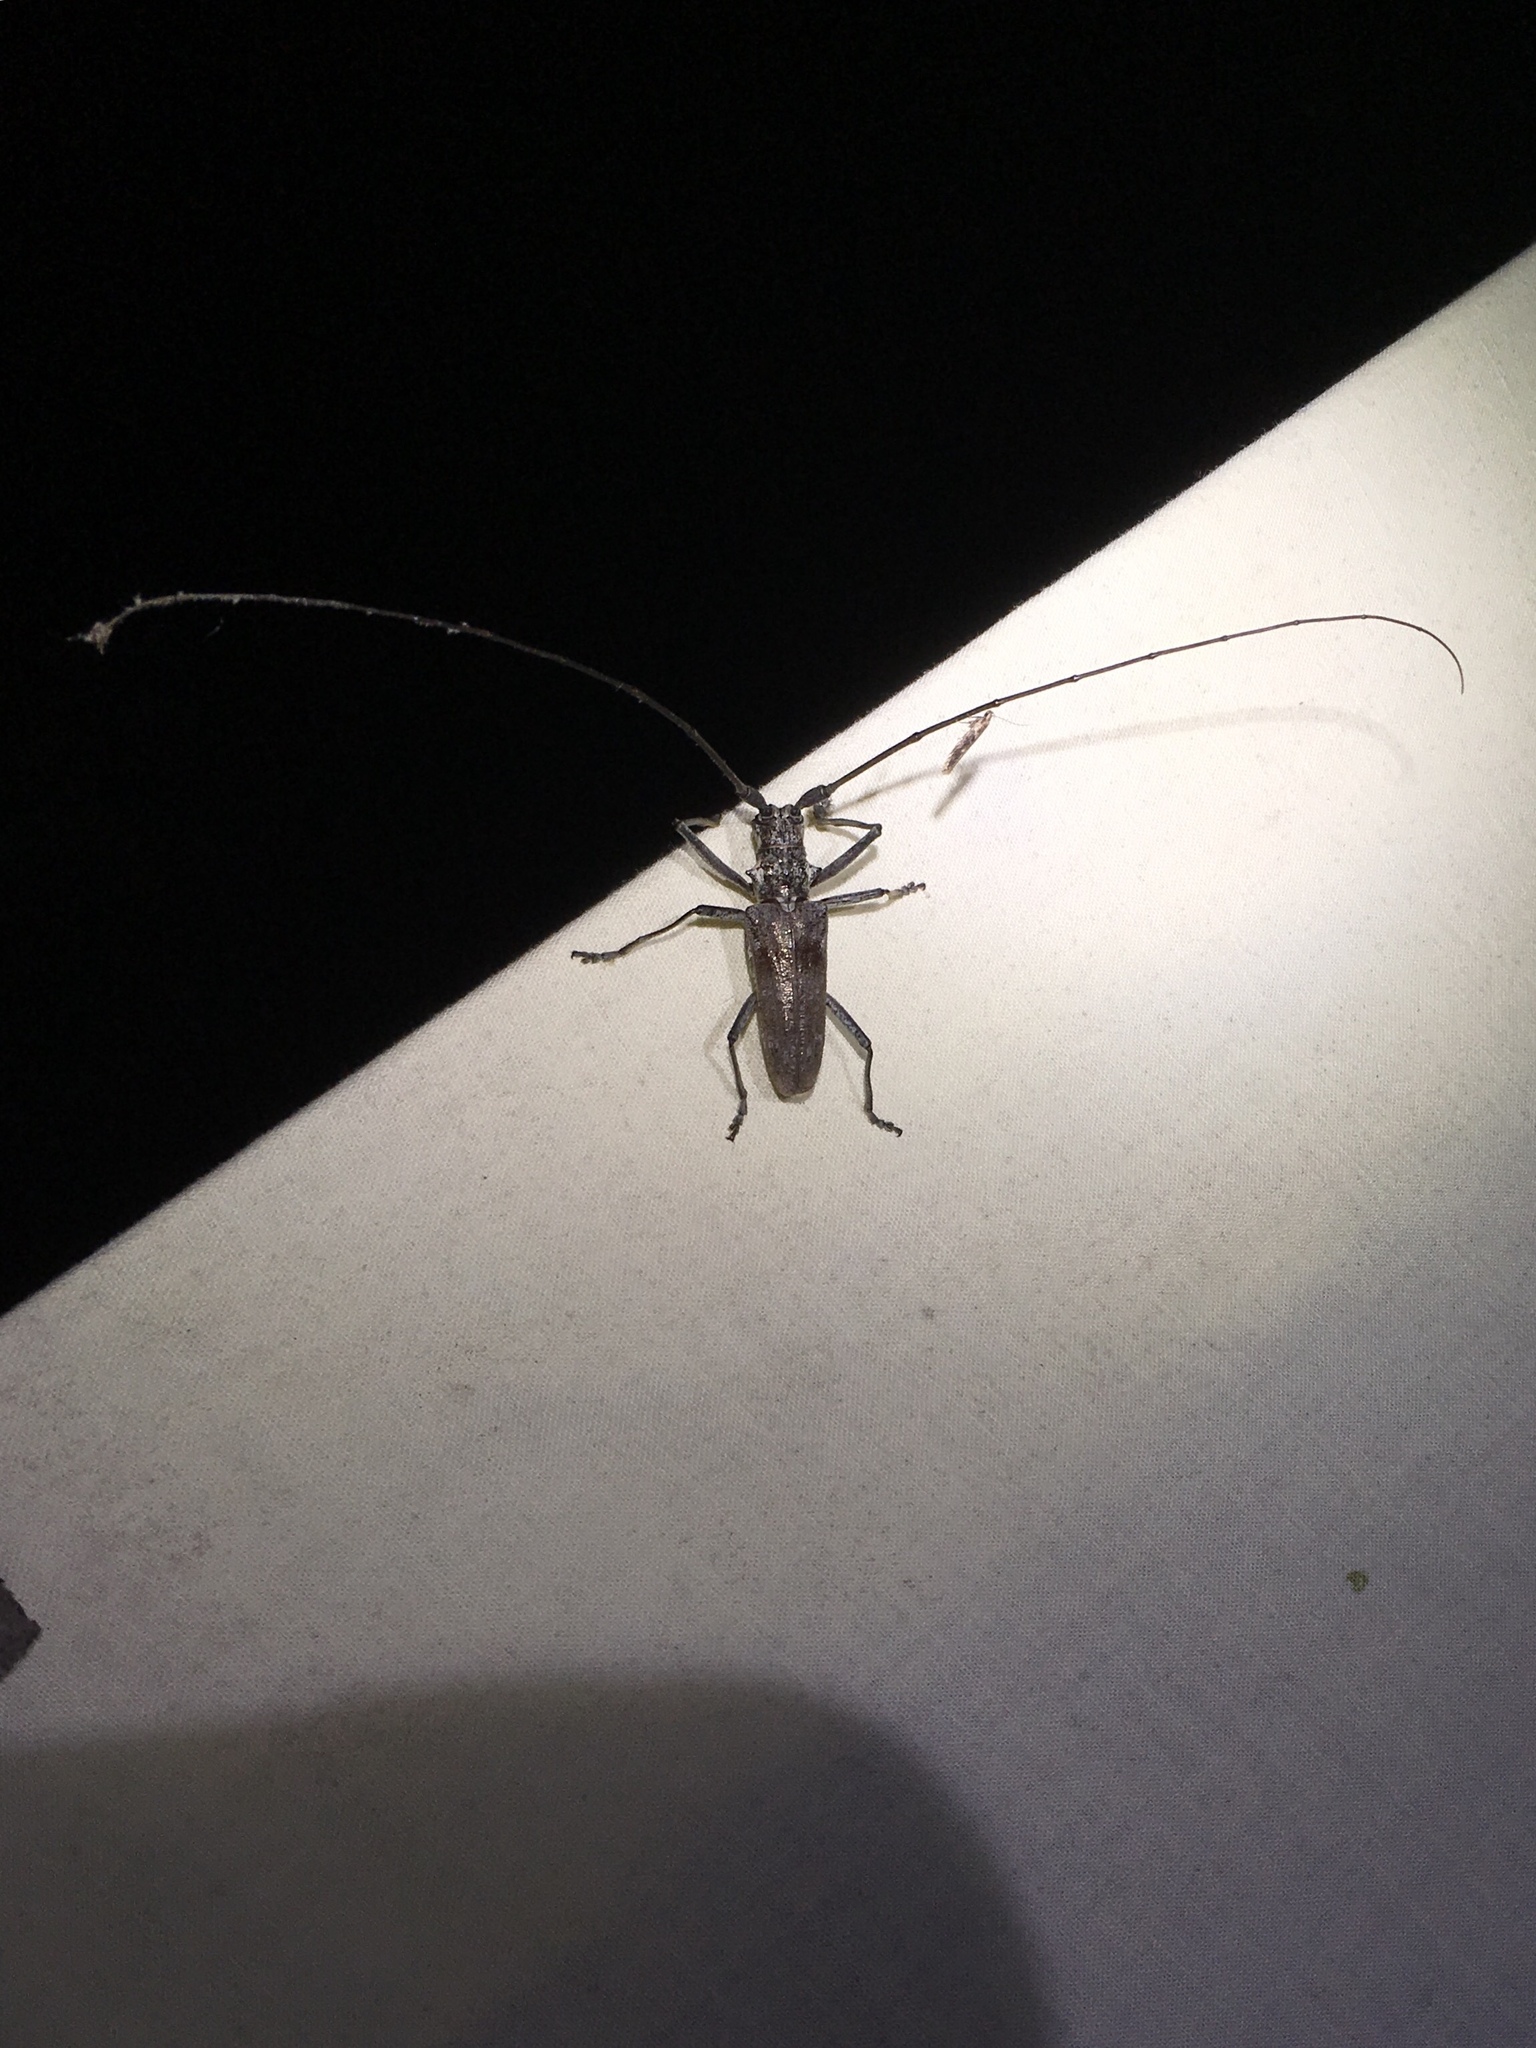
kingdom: Animalia
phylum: Arthropoda
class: Insecta
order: Coleoptera
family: Cerambycidae
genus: Monochamus
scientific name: Monochamus notatus
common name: Northeastern pine sawyer beetle
